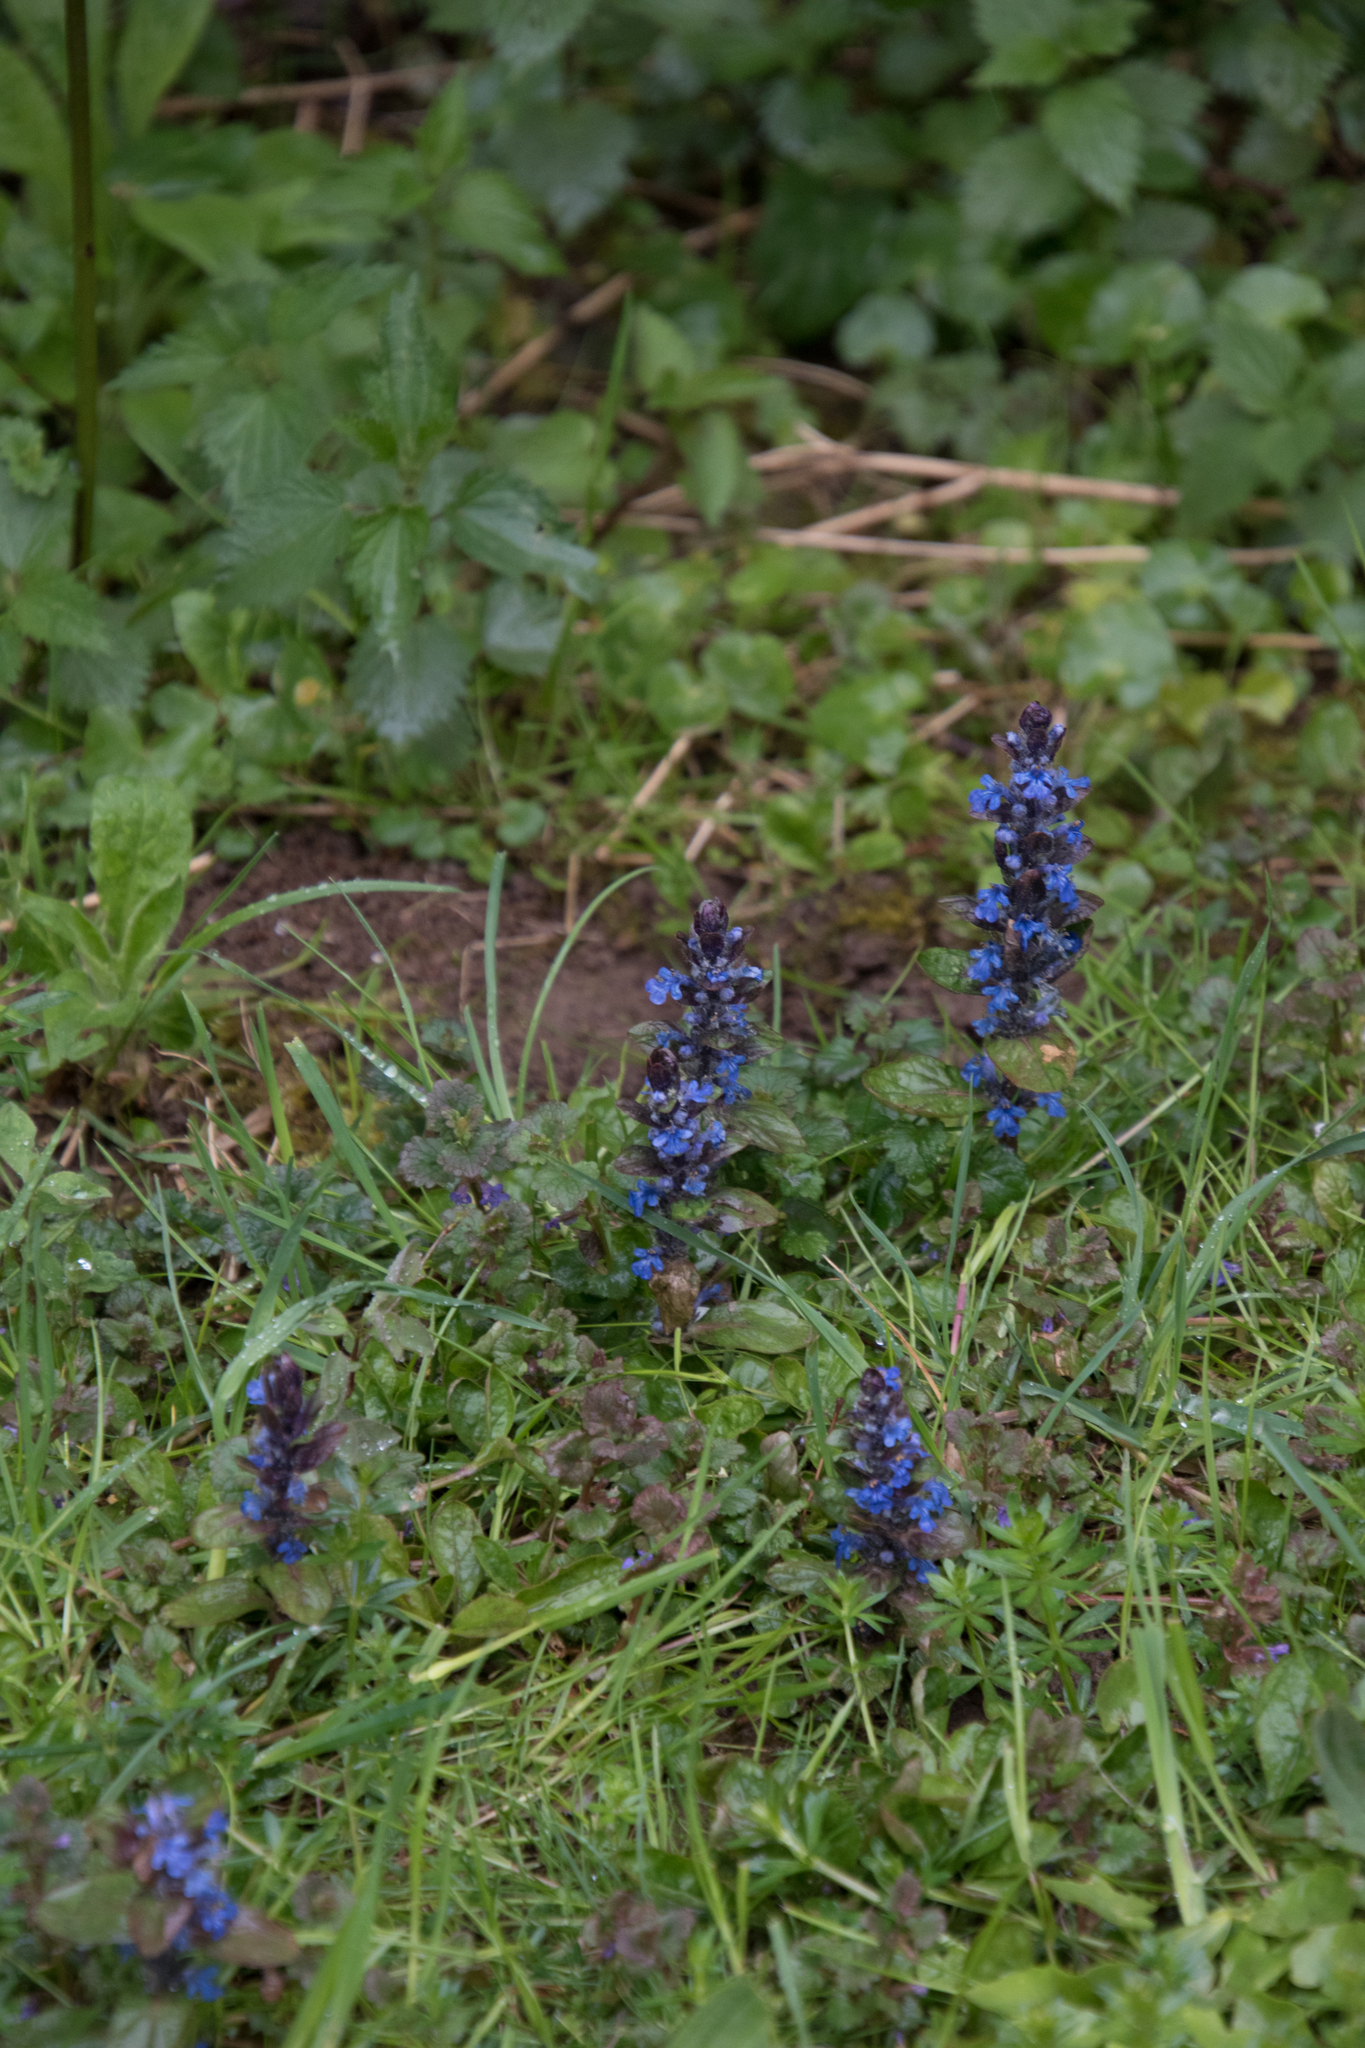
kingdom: Plantae
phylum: Tracheophyta
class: Magnoliopsida
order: Lamiales
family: Lamiaceae
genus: Ajuga
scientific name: Ajuga reptans
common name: Bugle
